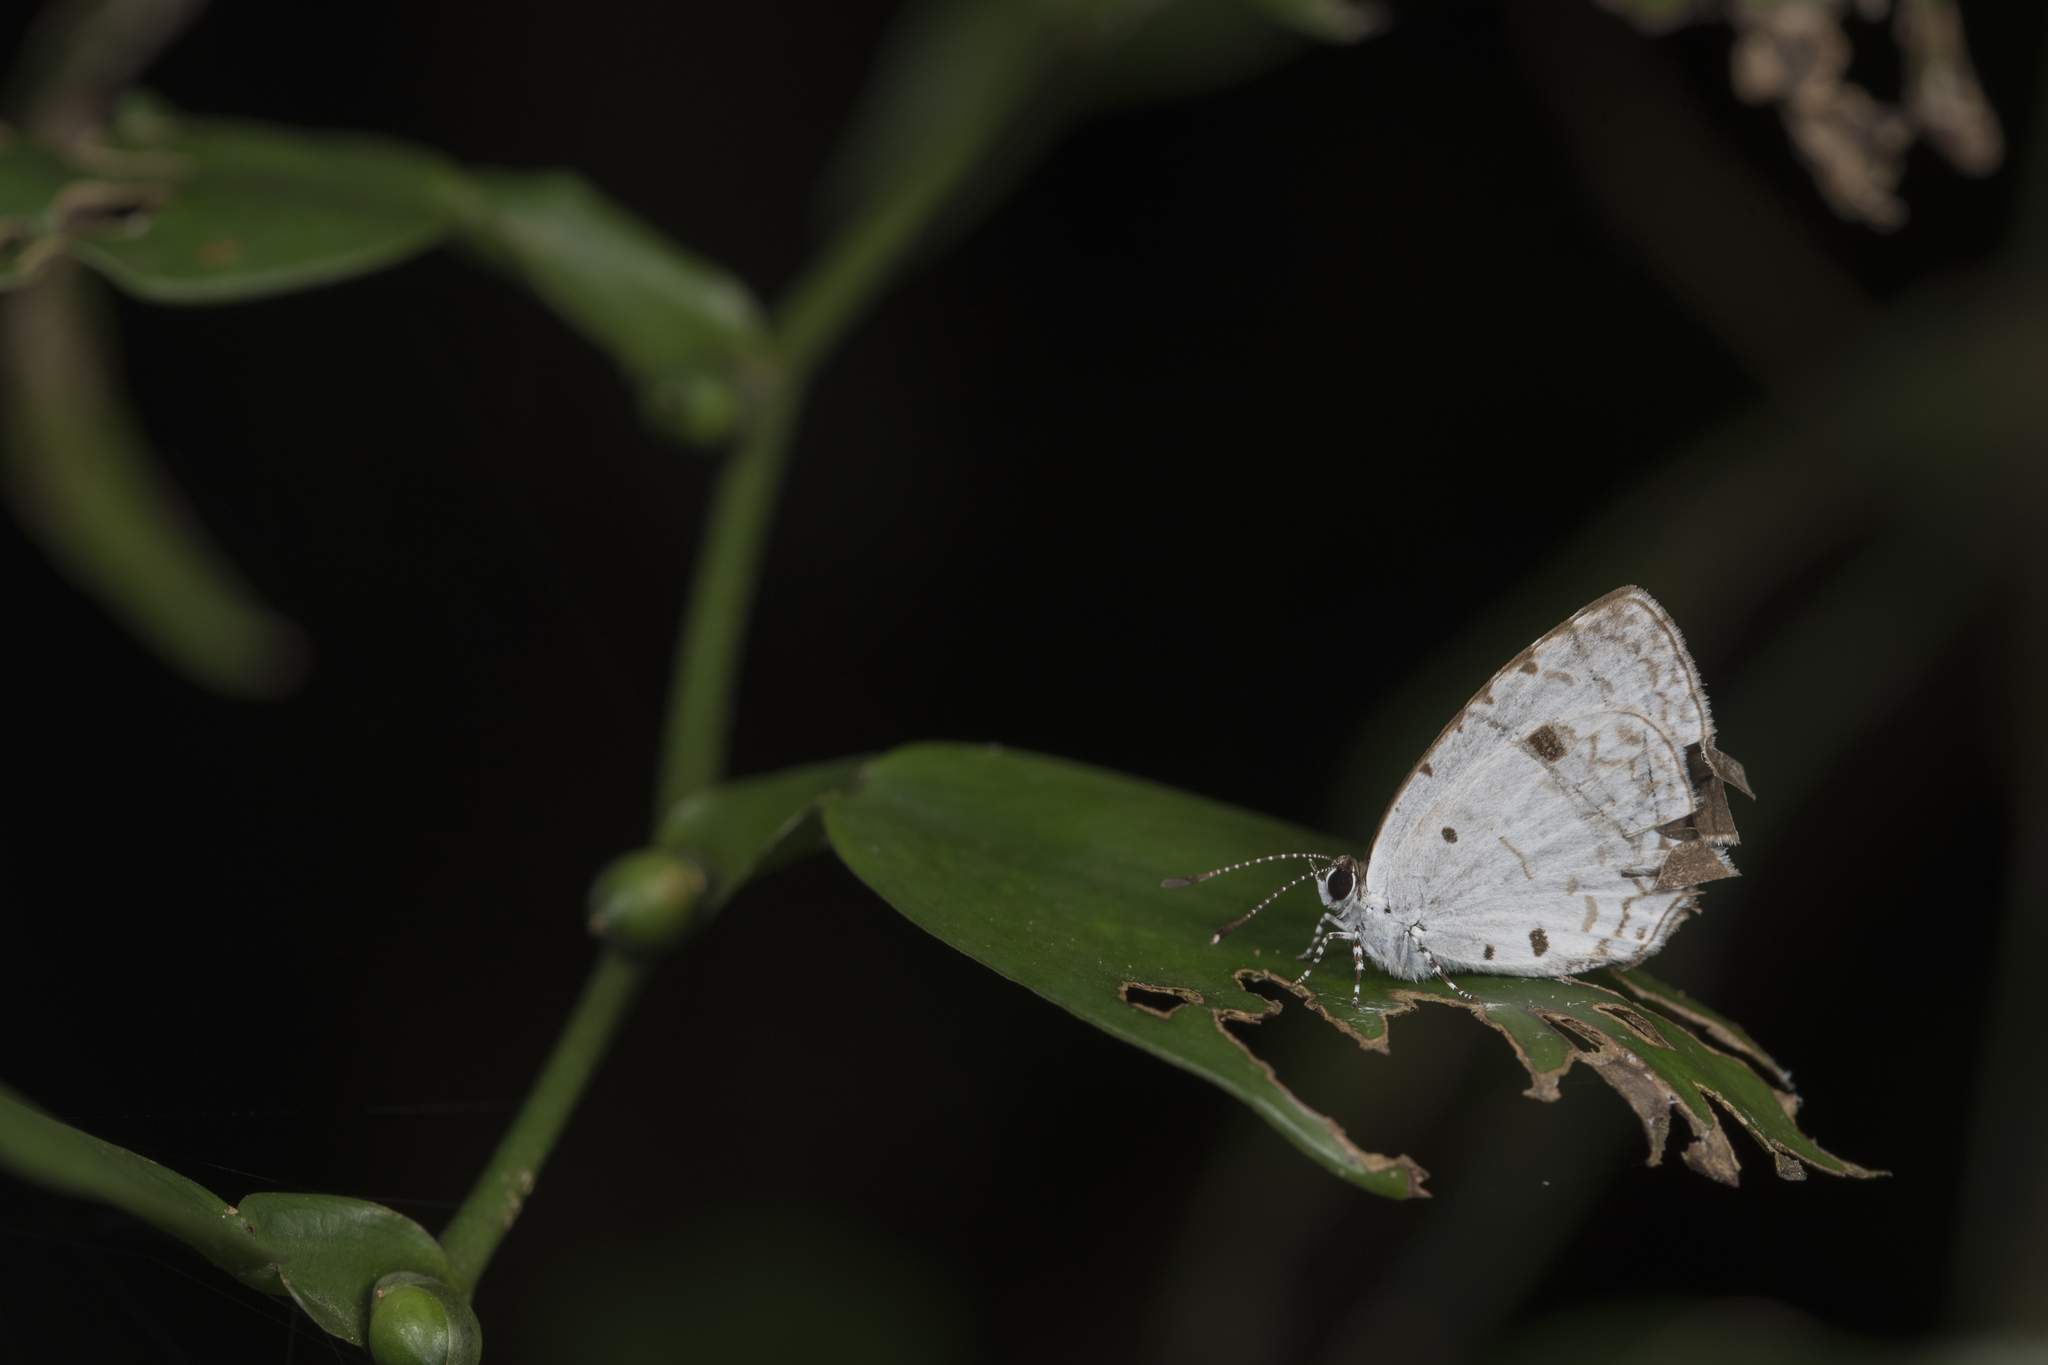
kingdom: Animalia
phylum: Arthropoda
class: Insecta
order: Lepidoptera
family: Lycaenidae
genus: Megisba
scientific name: Megisba malaya
